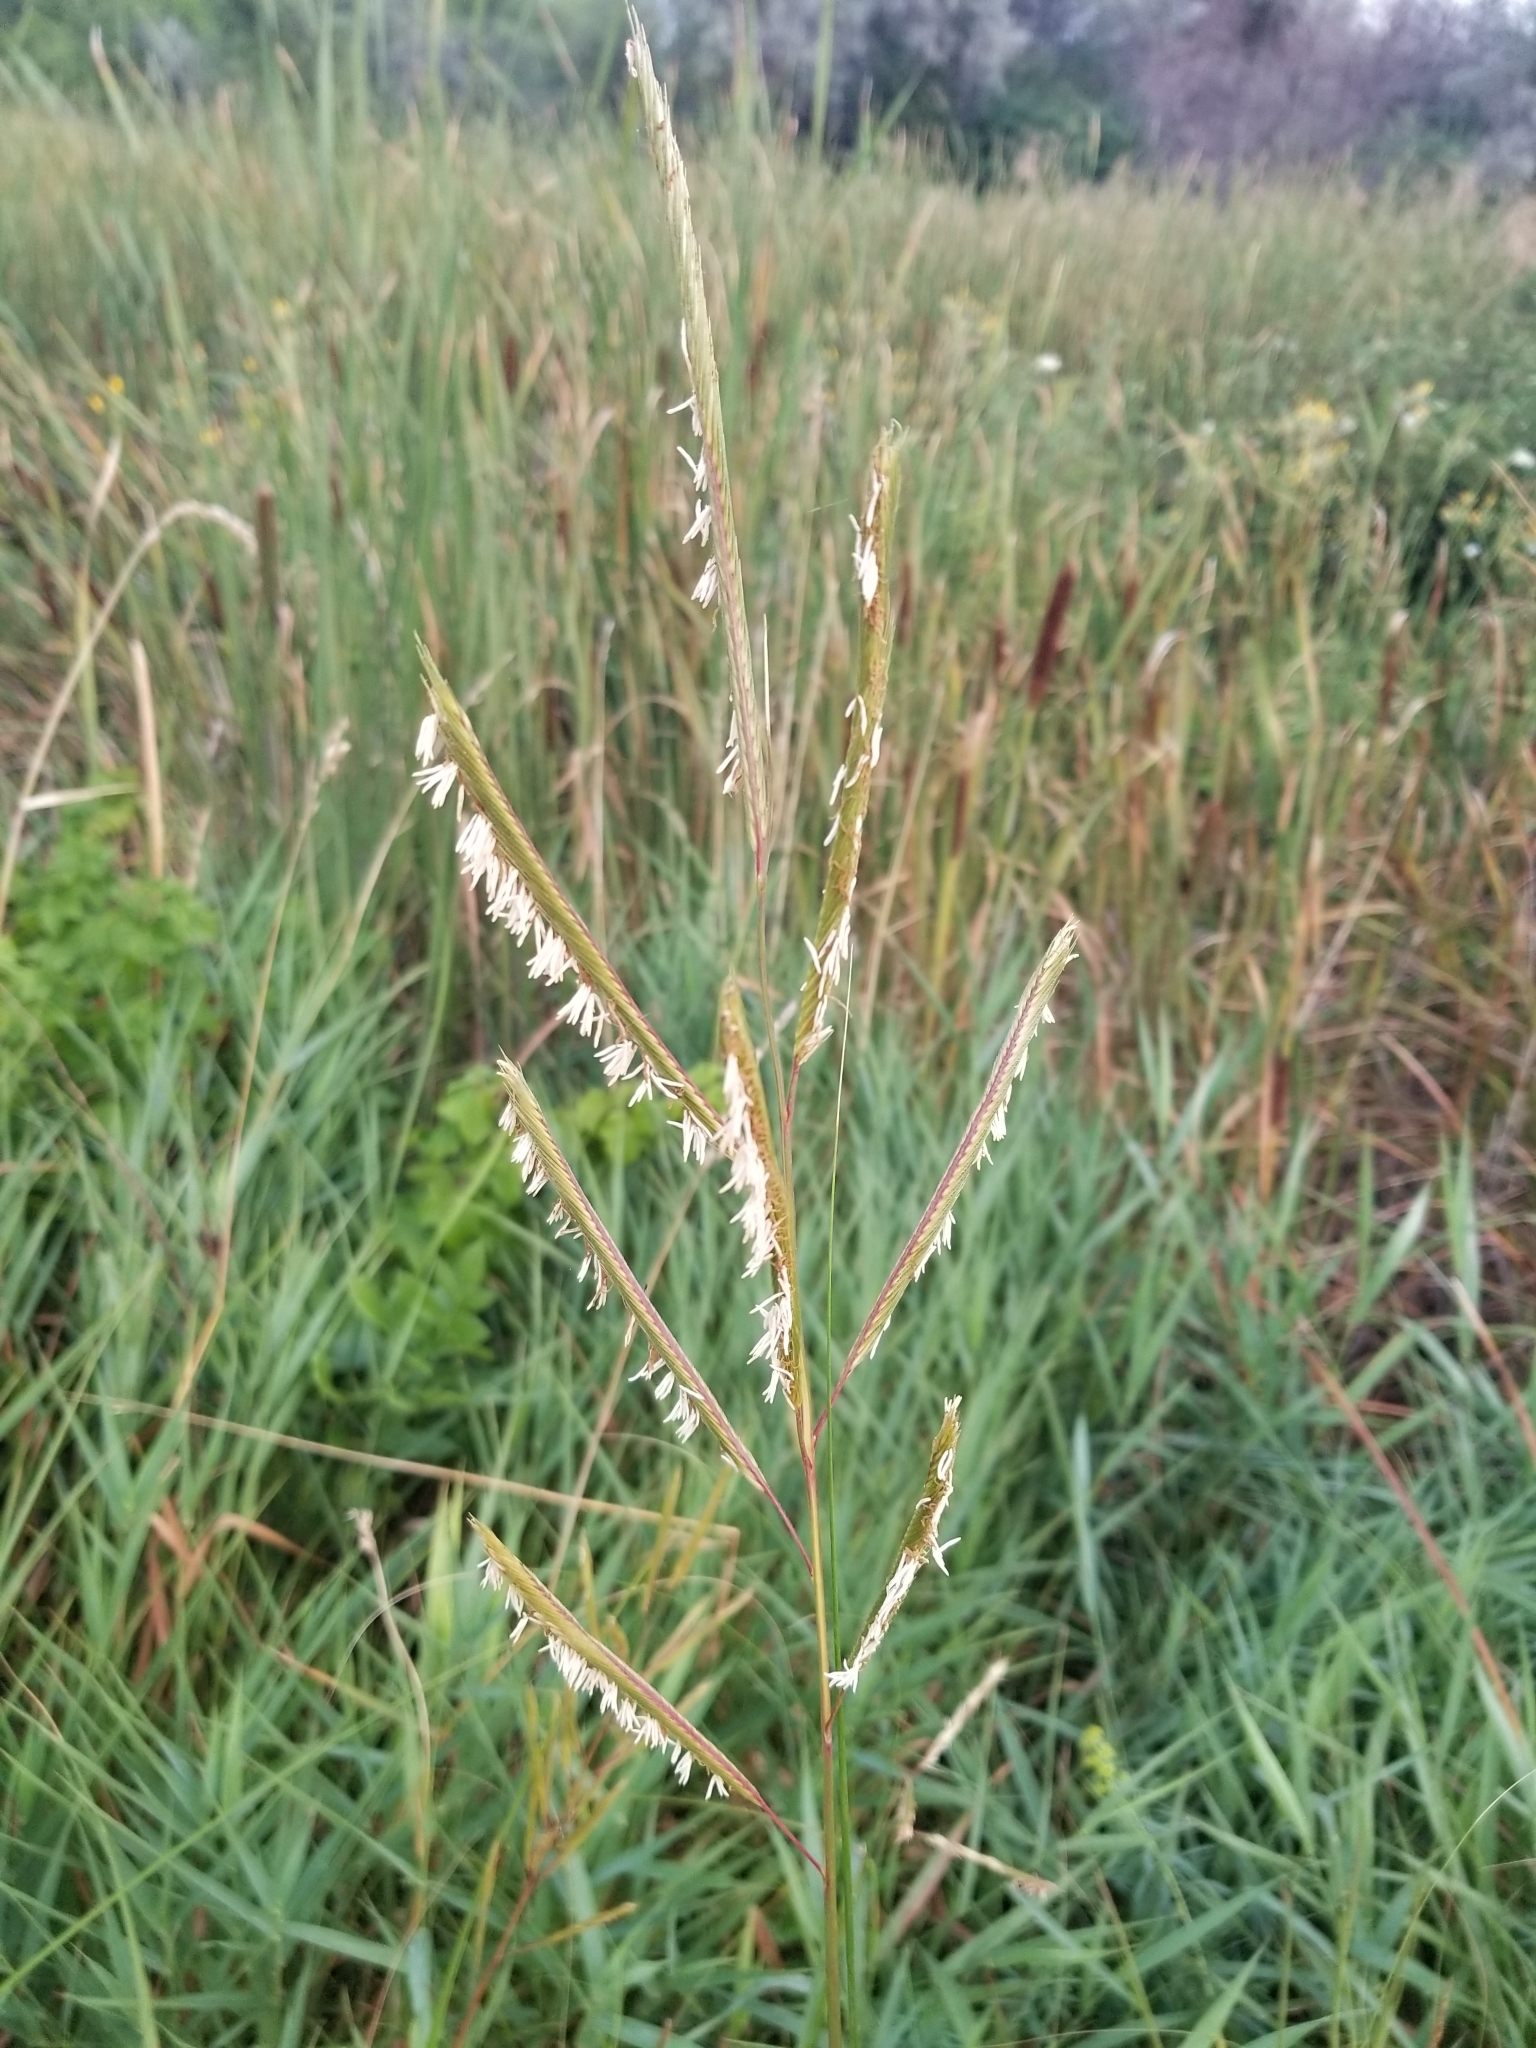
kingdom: Plantae
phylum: Tracheophyta
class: Liliopsida
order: Poales
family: Poaceae
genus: Sporobolus
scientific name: Sporobolus michauxianus
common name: Freshwater cordgrass
